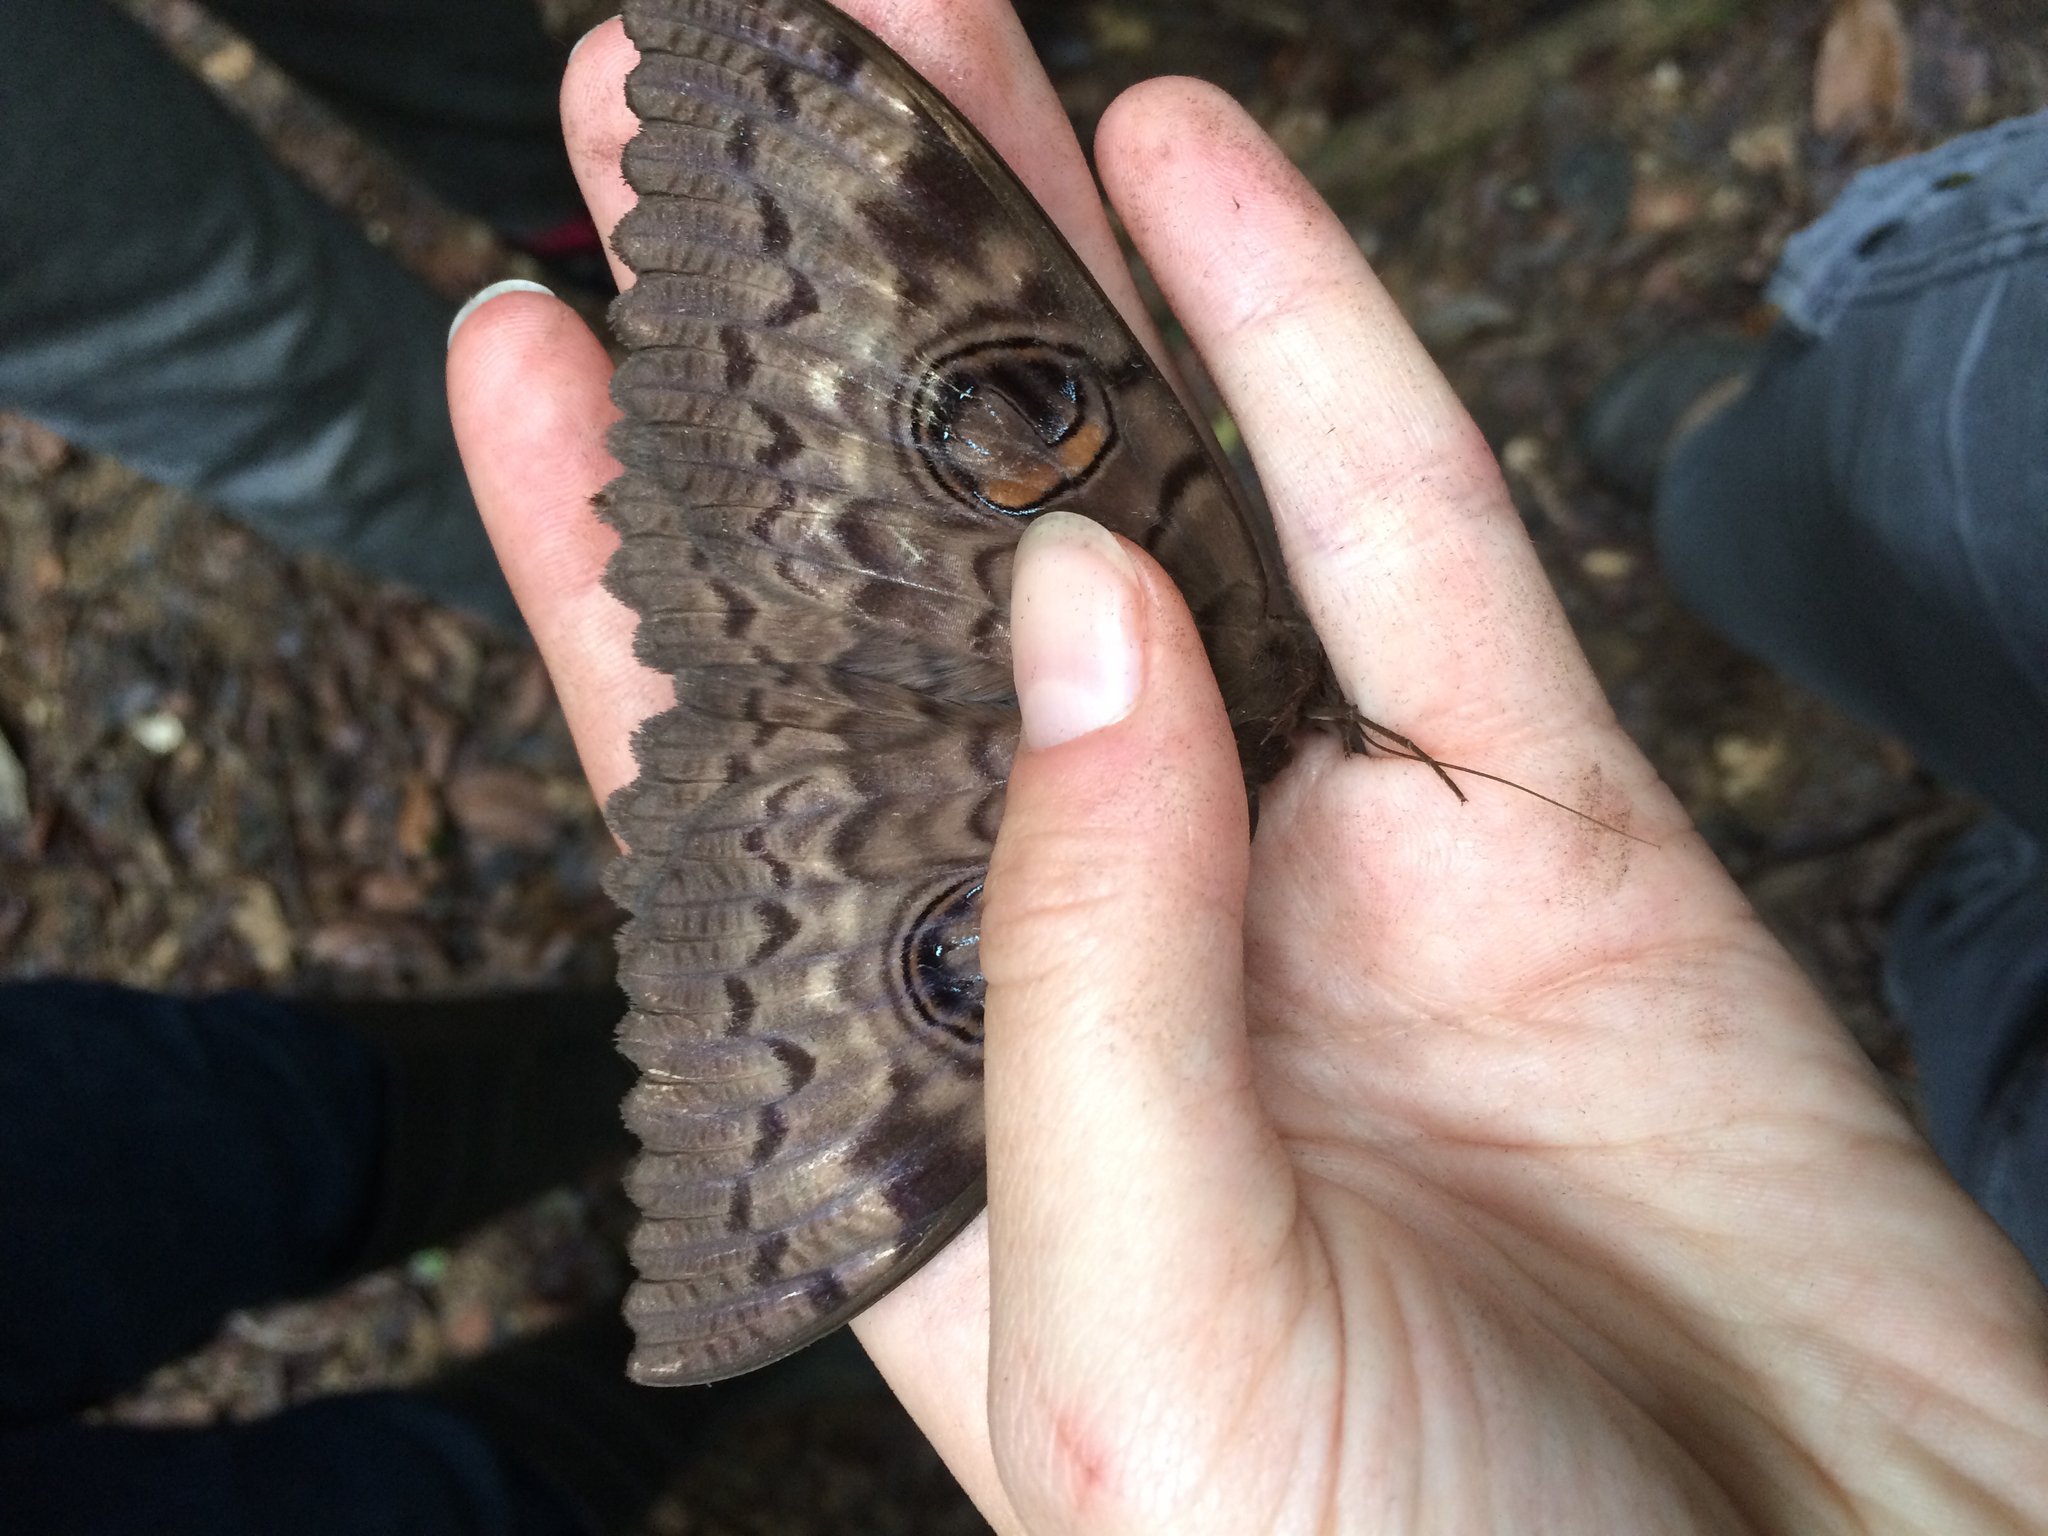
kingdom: Animalia
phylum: Arthropoda
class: Insecta
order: Lepidoptera
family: Erebidae
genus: Erebus
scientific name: Erebus walkeri
